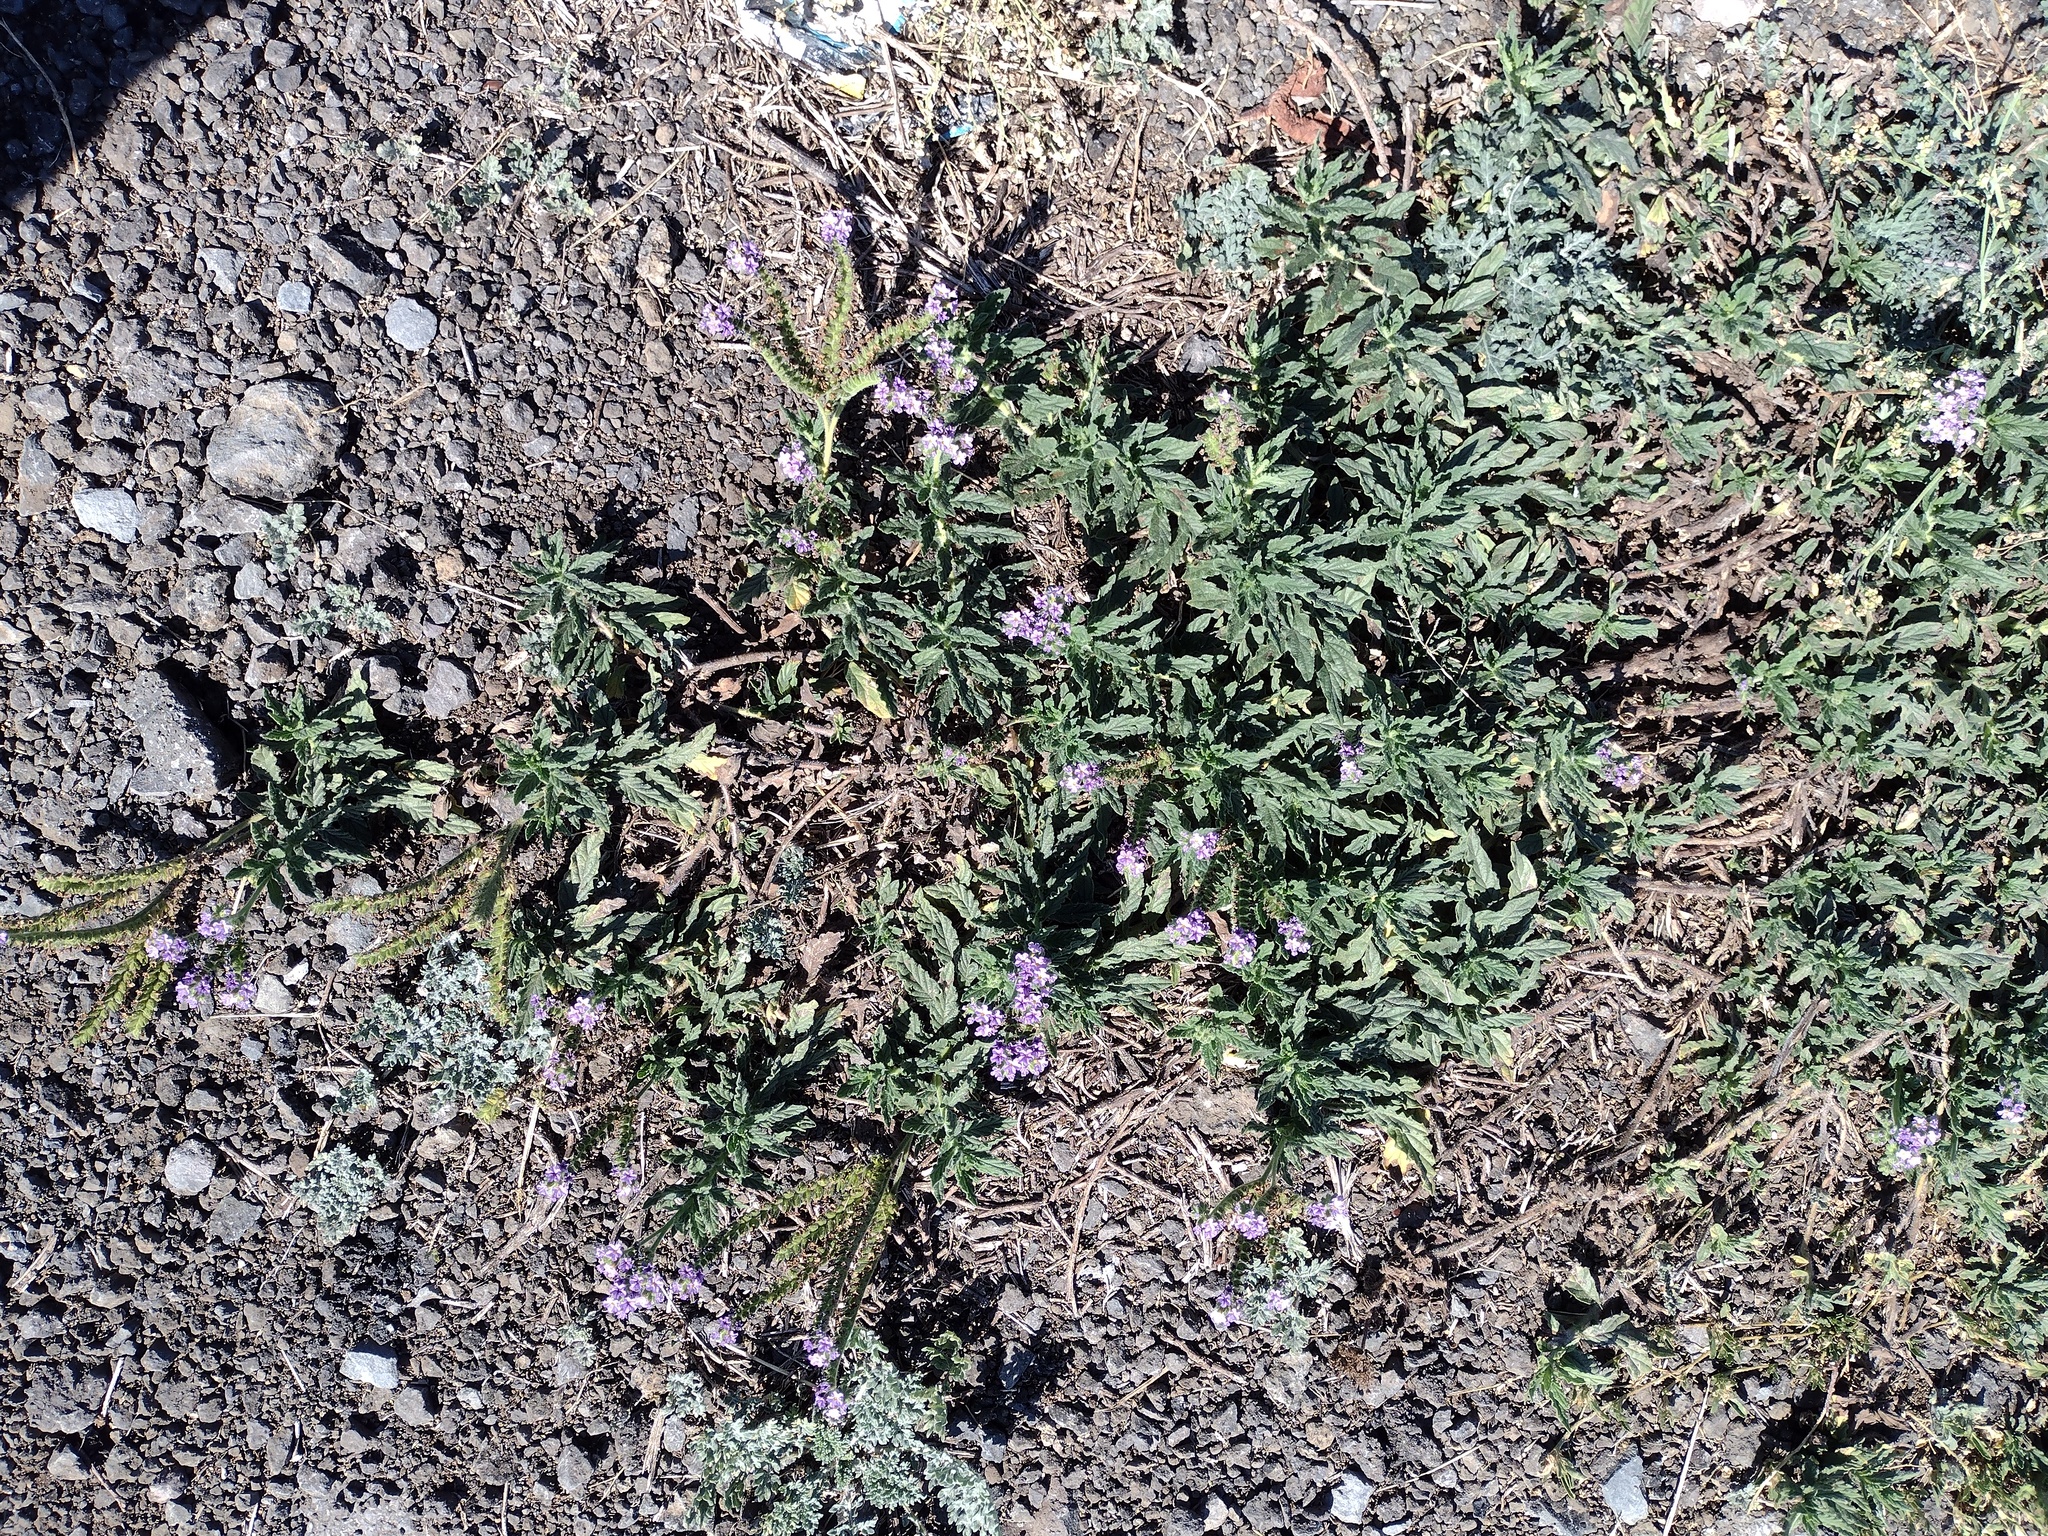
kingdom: Plantae
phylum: Tracheophyta
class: Magnoliopsida
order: Boraginales
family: Heliotropiaceae
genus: Heliotropium
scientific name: Heliotropium amplexicaule
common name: Clasping heliotrope
